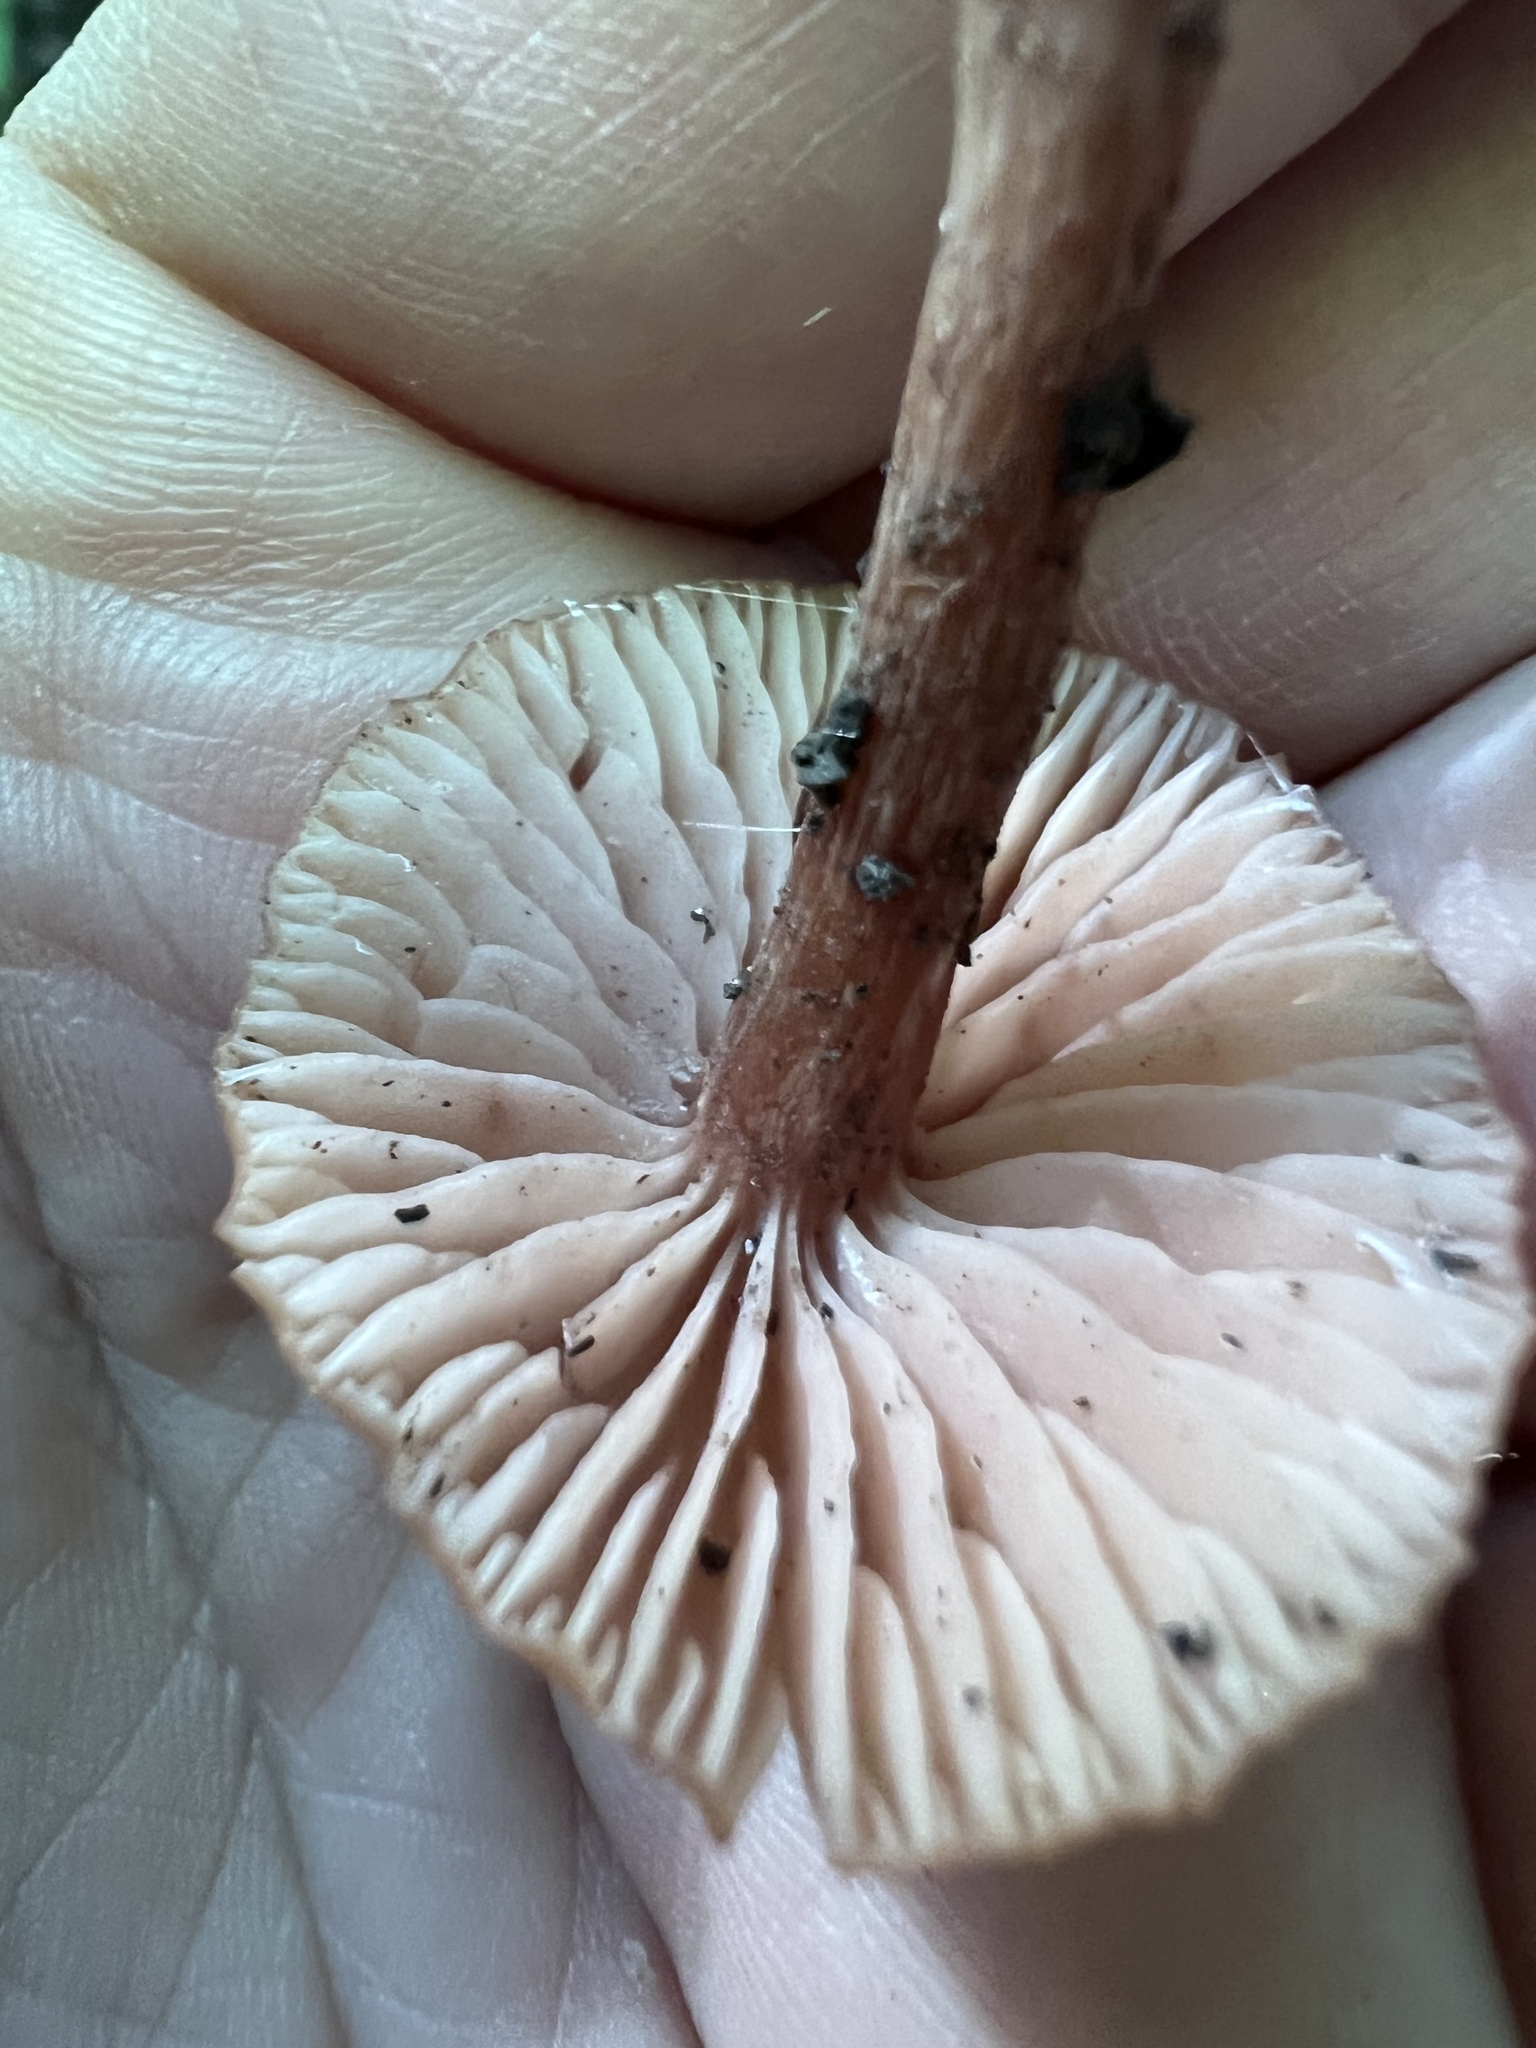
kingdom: Fungi
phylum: Basidiomycota
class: Agaricomycetes
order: Agaricales
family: Hydnangiaceae
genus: Laccaria
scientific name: Laccaria laccata
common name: Deceiver
